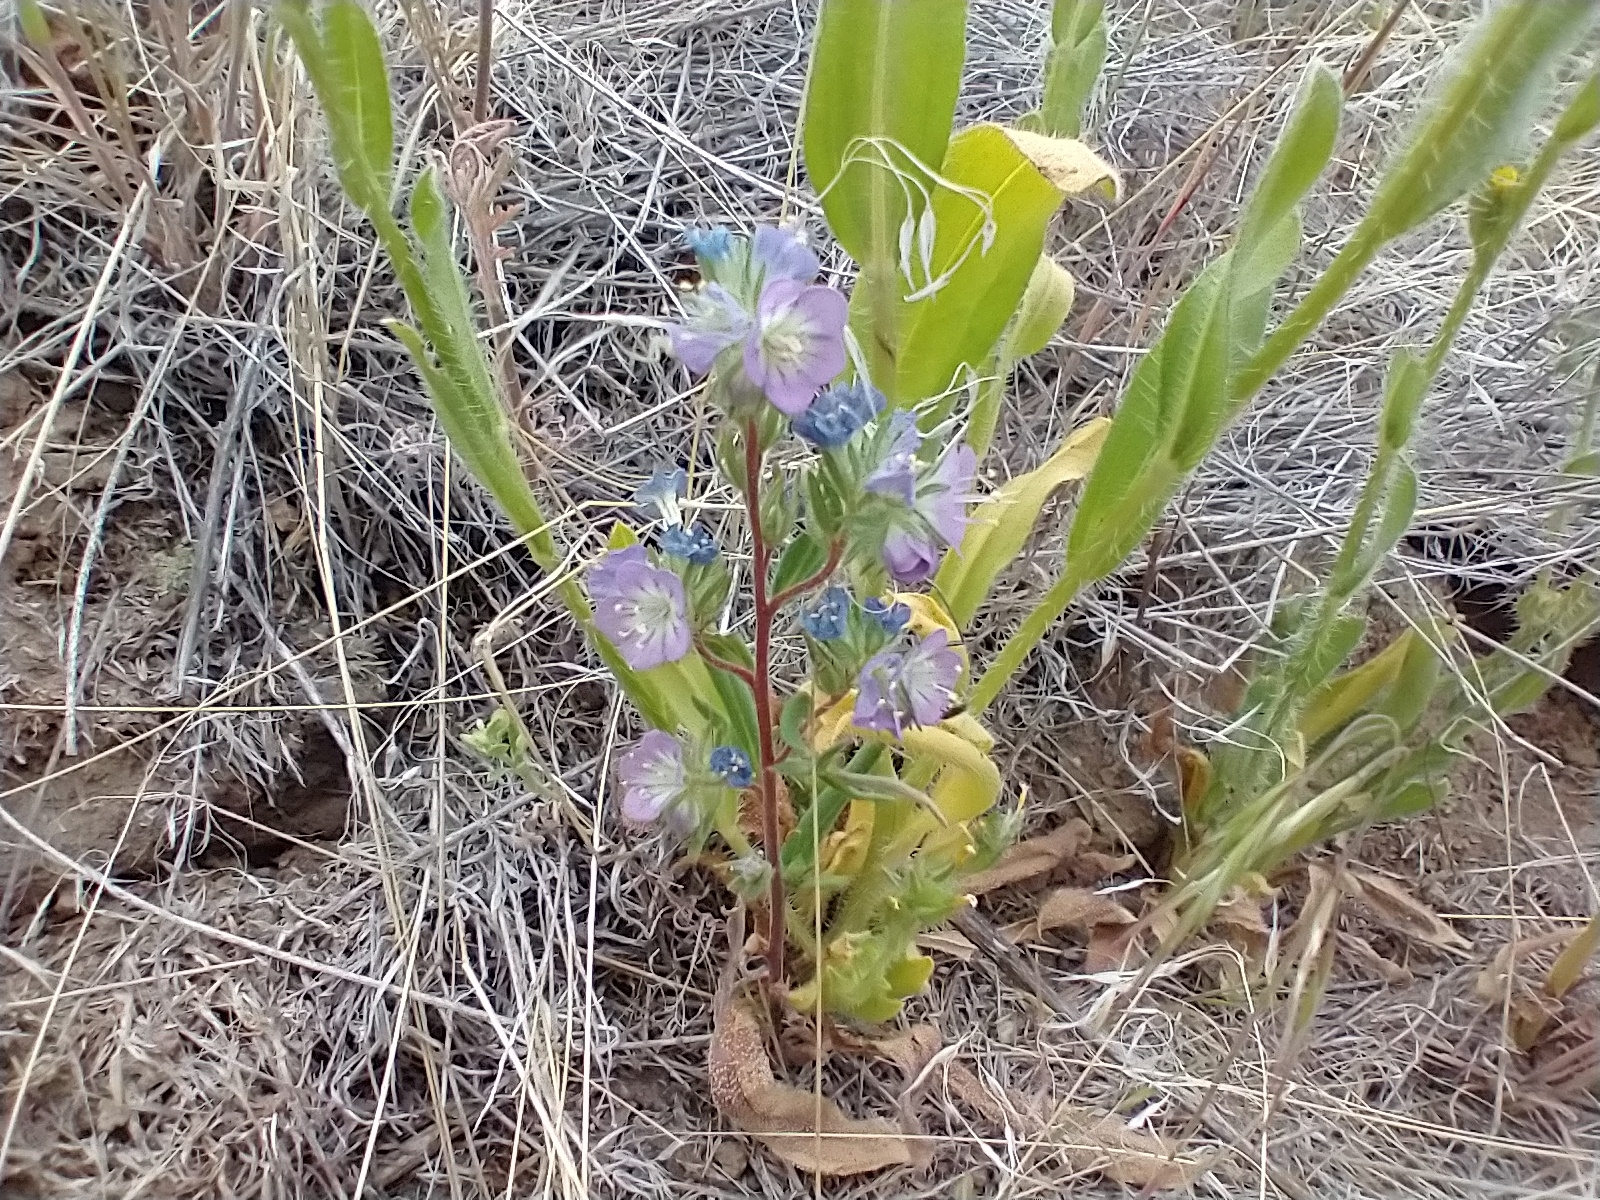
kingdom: Plantae
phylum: Tracheophyta
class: Magnoliopsida
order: Boraginales
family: Hydrophyllaceae
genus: Phacelia
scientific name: Phacelia linearis
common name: Linear-leaved phacelia
